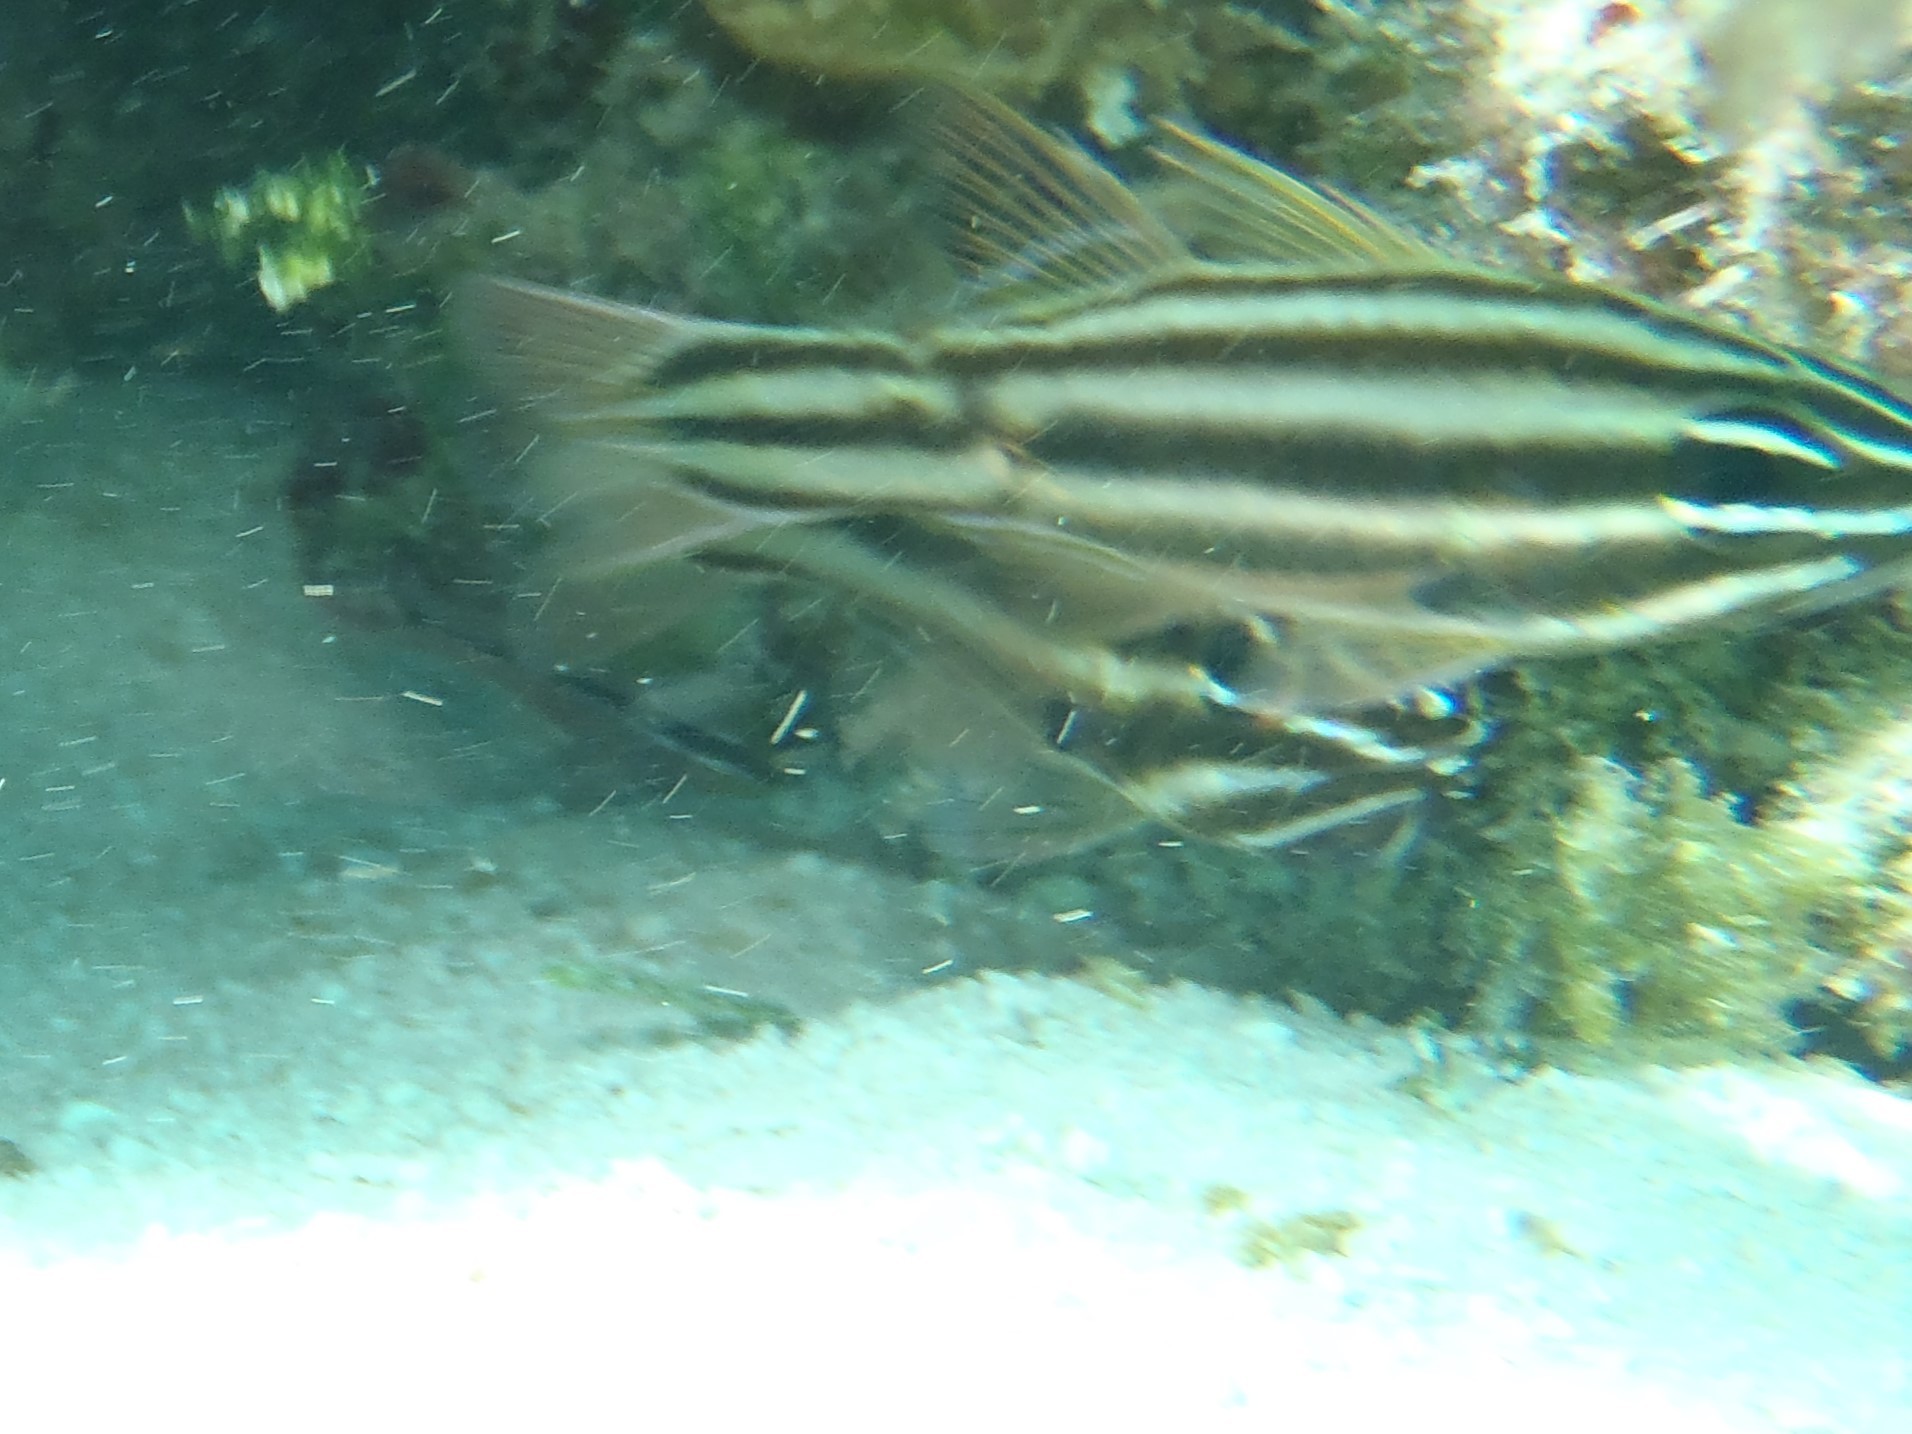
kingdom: Animalia
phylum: Chordata
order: Perciformes
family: Apogonidae
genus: Ostorhinchus
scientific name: Ostorhinchus novemfasciatus
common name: Seven-striped cardinalfish
